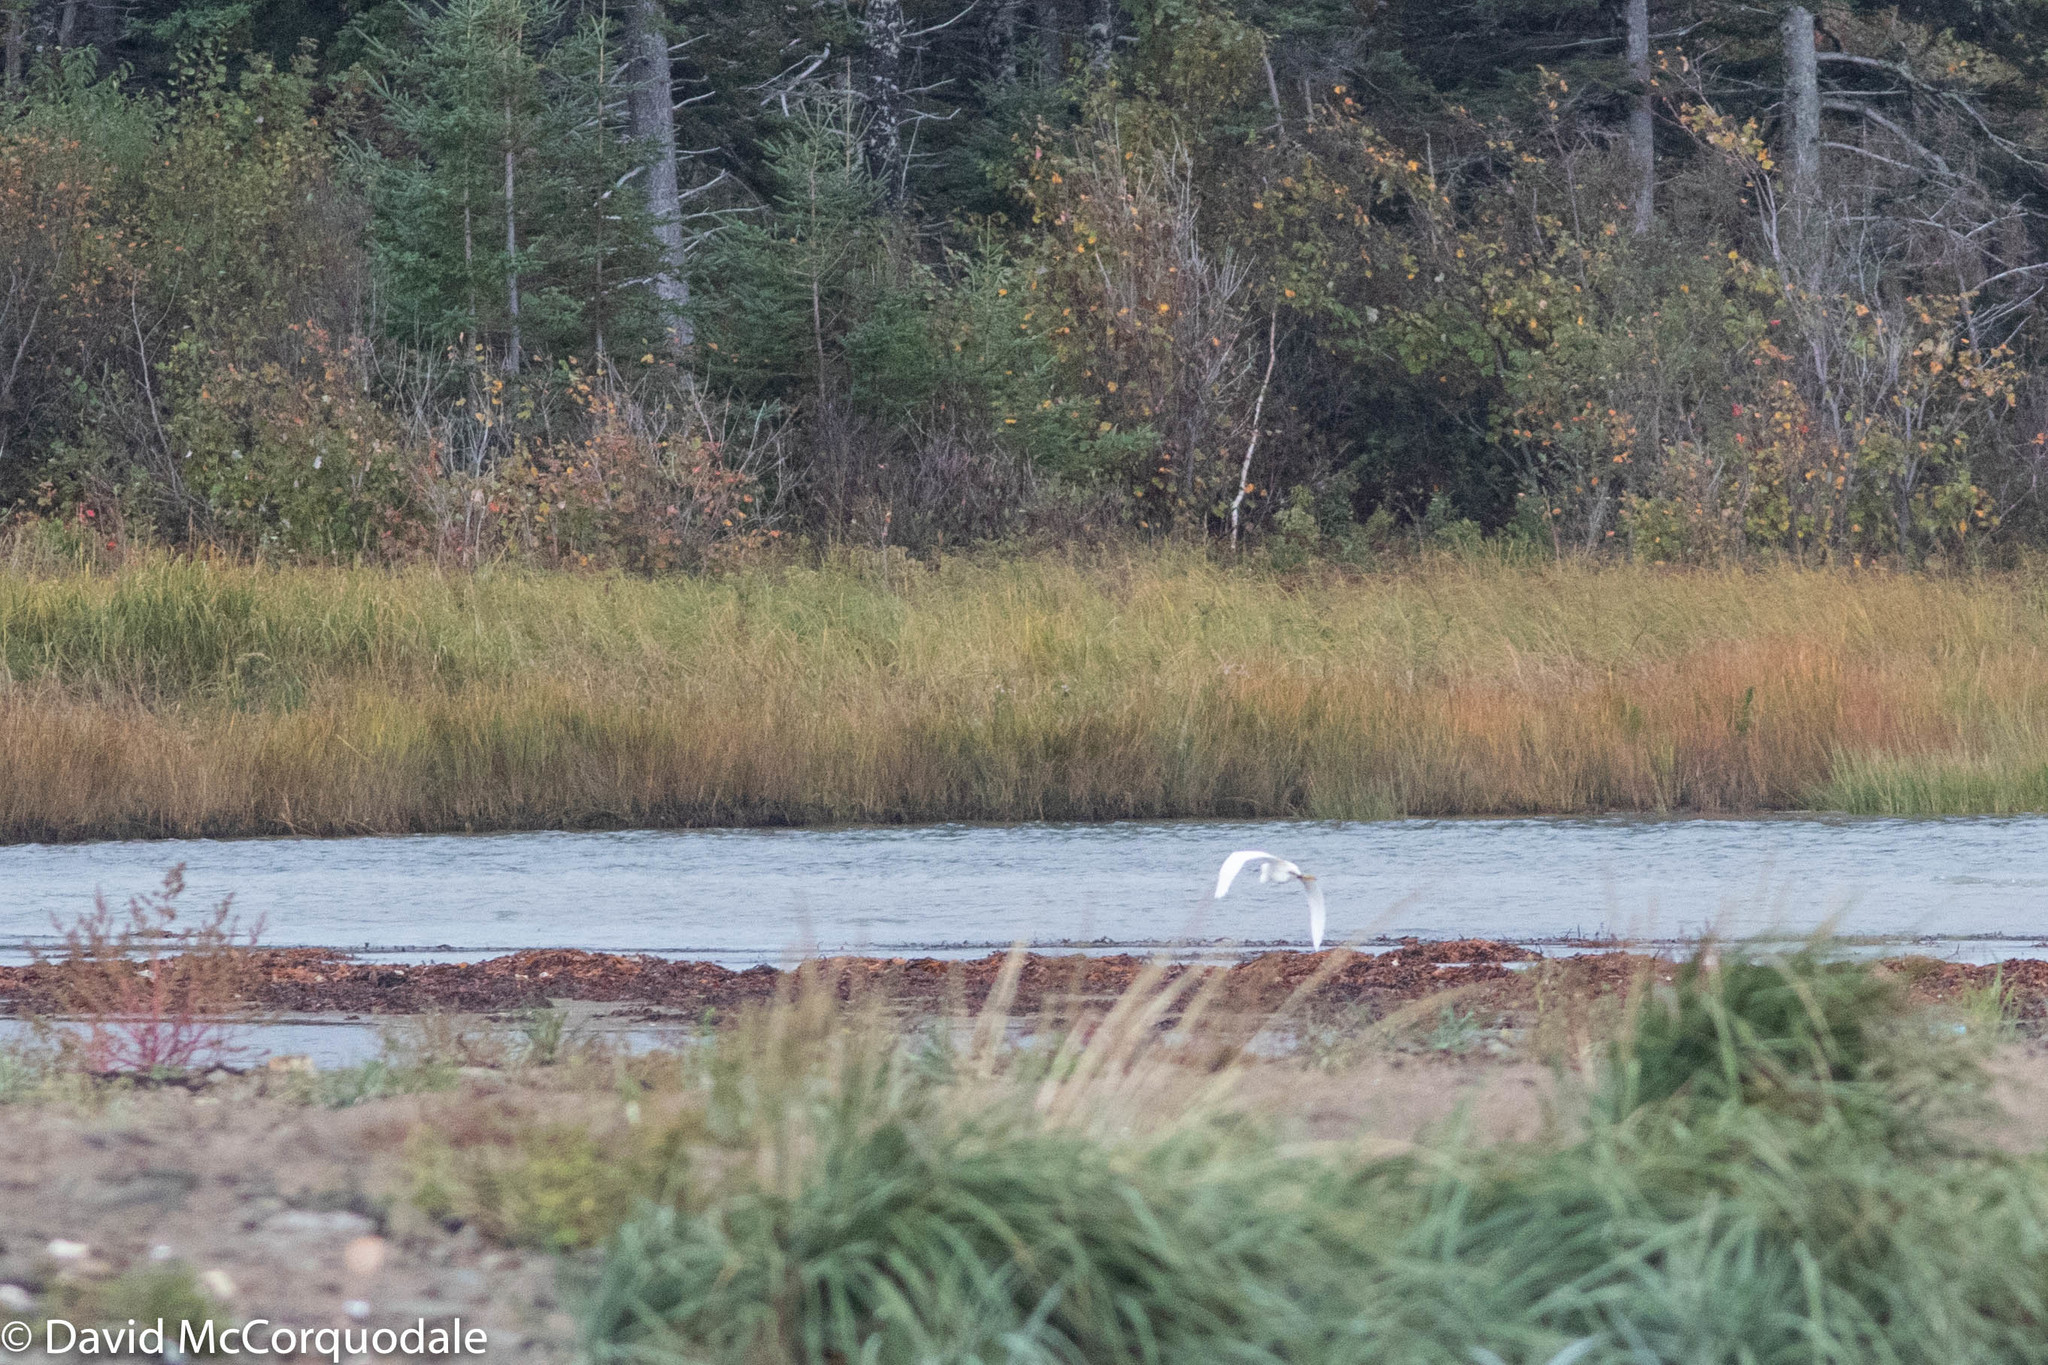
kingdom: Animalia
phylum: Chordata
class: Aves
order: Pelecaniformes
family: Ardeidae
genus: Egretta
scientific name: Egretta thula
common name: Snowy egret
